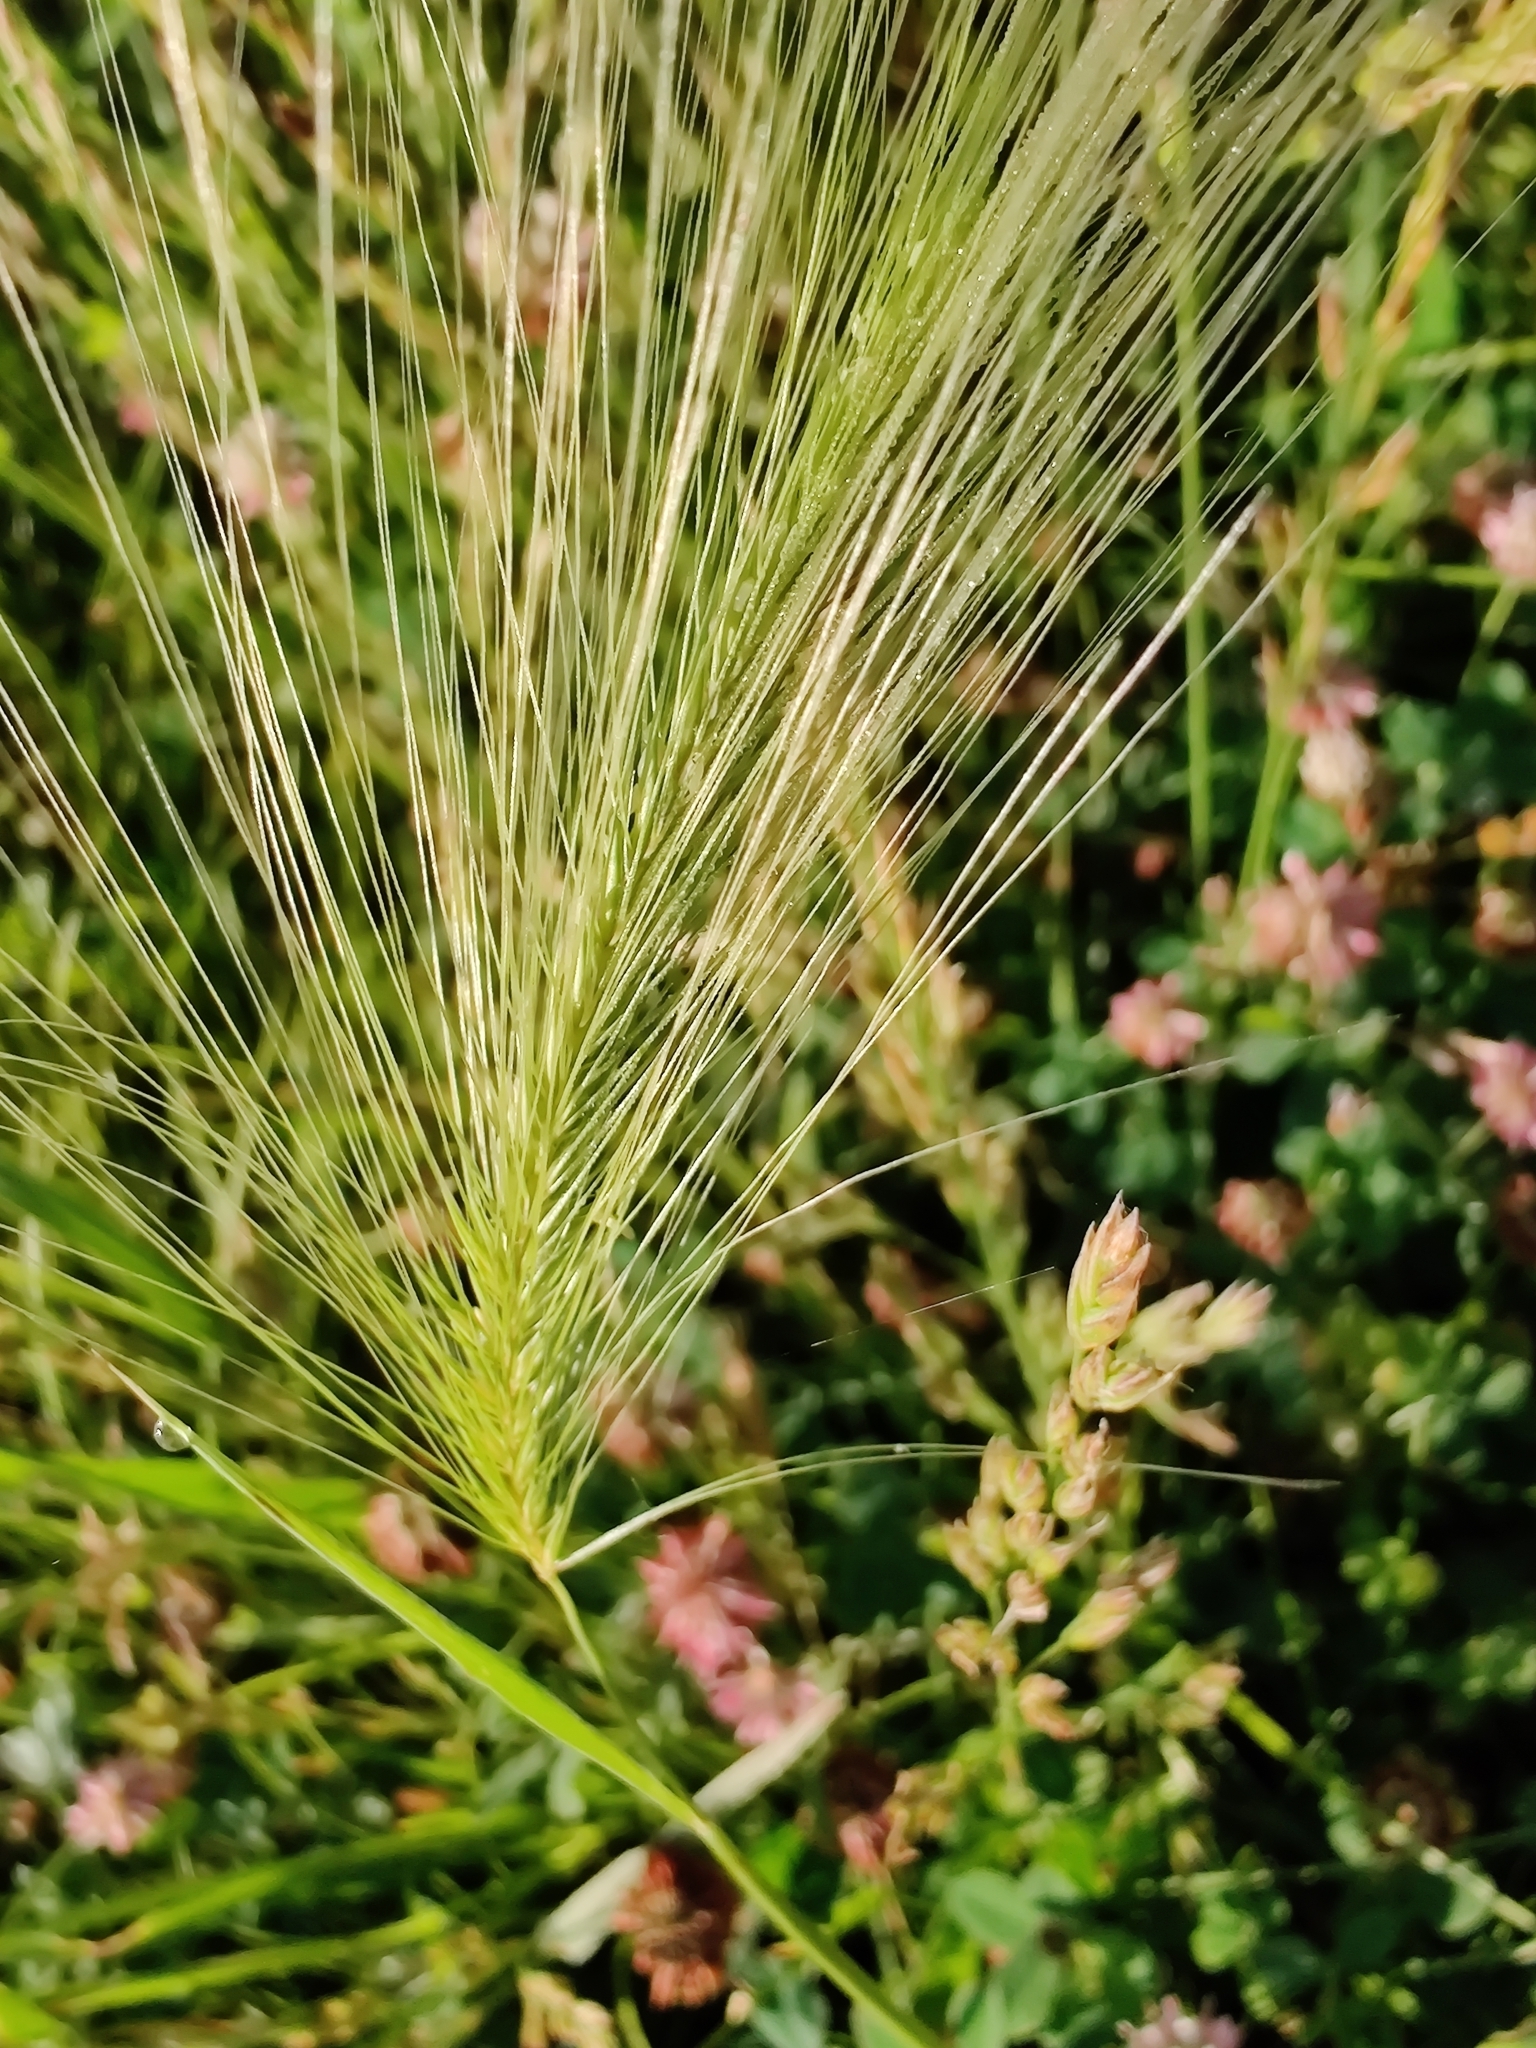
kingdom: Plantae
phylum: Tracheophyta
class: Liliopsida
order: Poales
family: Poaceae
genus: Hordeum
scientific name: Hordeum jubatum
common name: Foxtail barley
